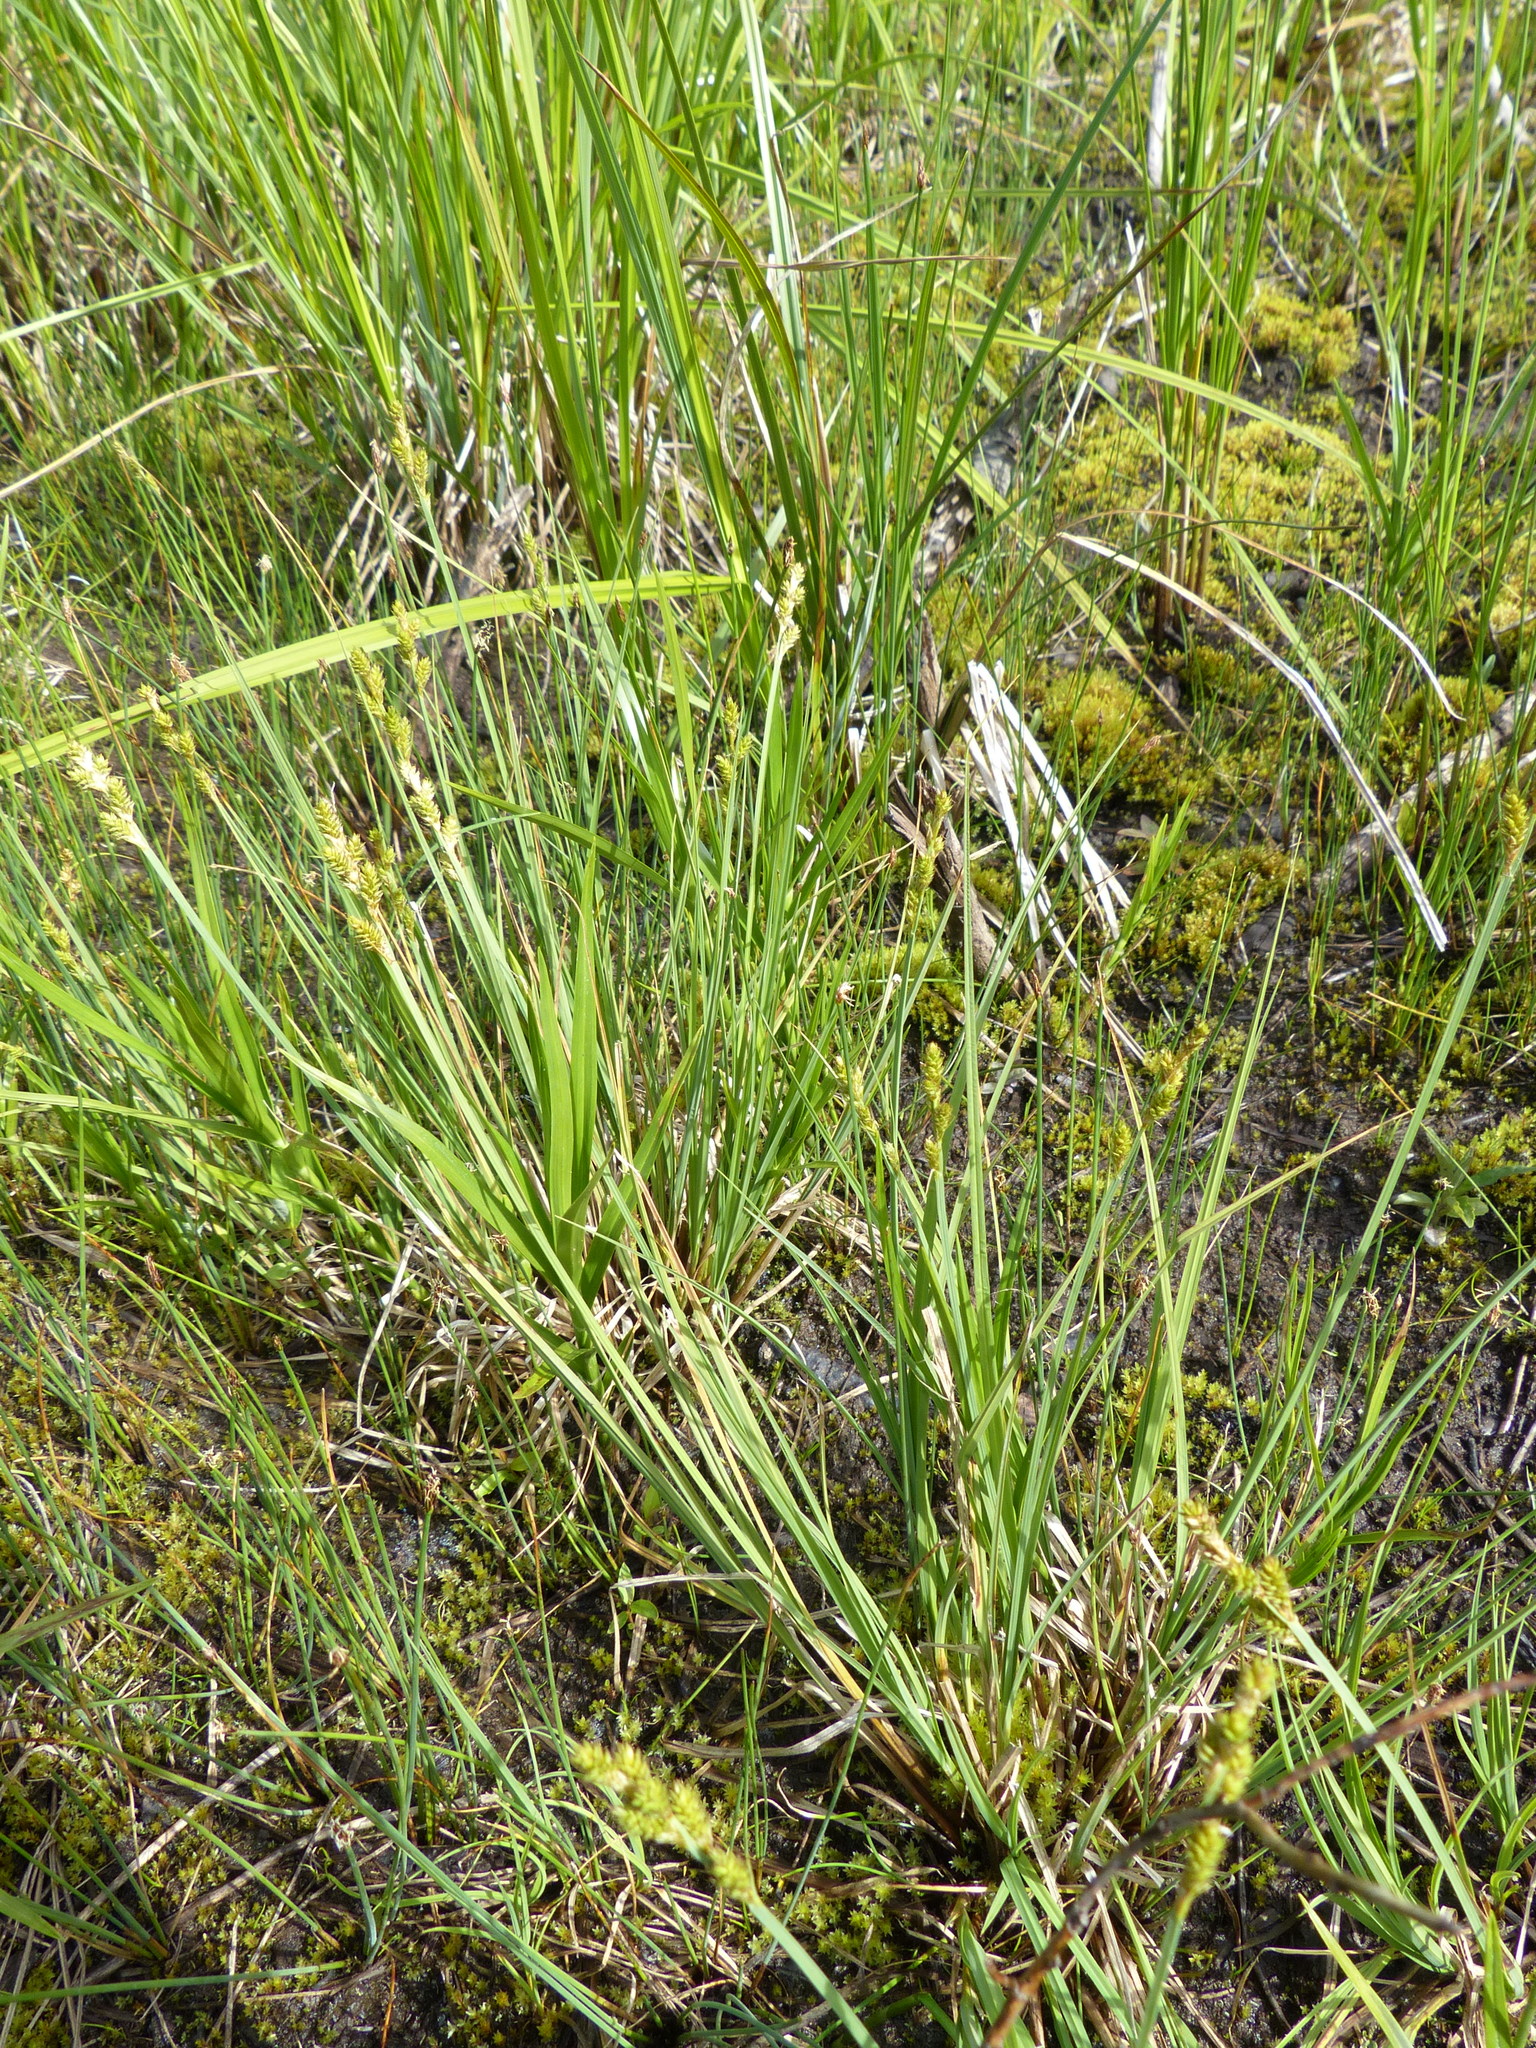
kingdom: Plantae
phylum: Tracheophyta
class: Liliopsida
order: Poales
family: Cyperaceae
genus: Carex
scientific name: Carex canescens
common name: White sedge
